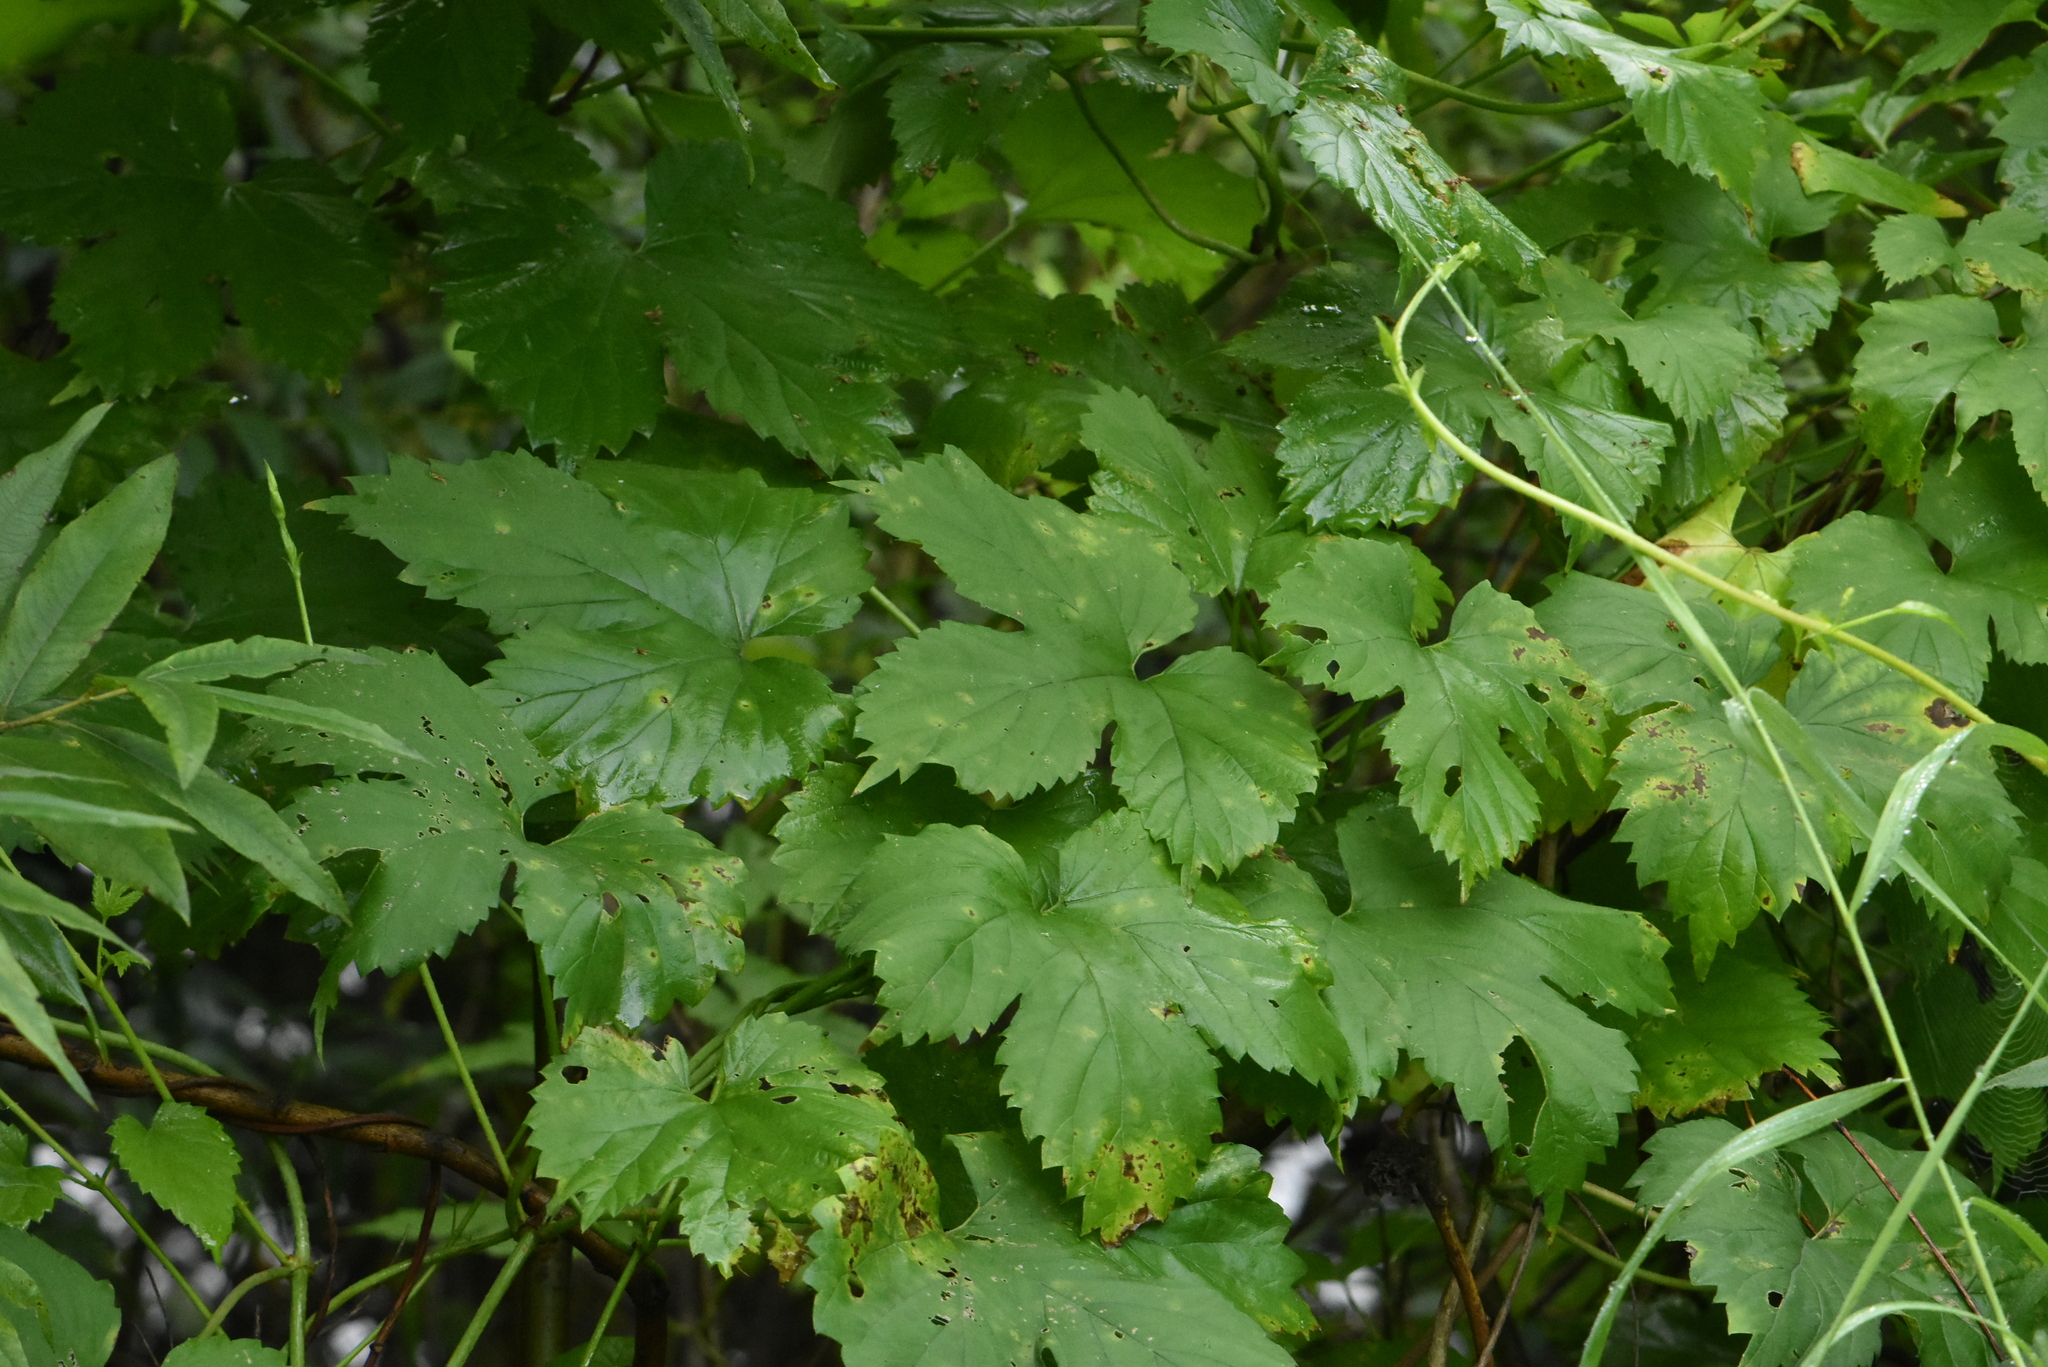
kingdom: Plantae
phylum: Tracheophyta
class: Magnoliopsida
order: Rosales
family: Cannabaceae
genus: Humulus
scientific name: Humulus lupulus
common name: Hop
